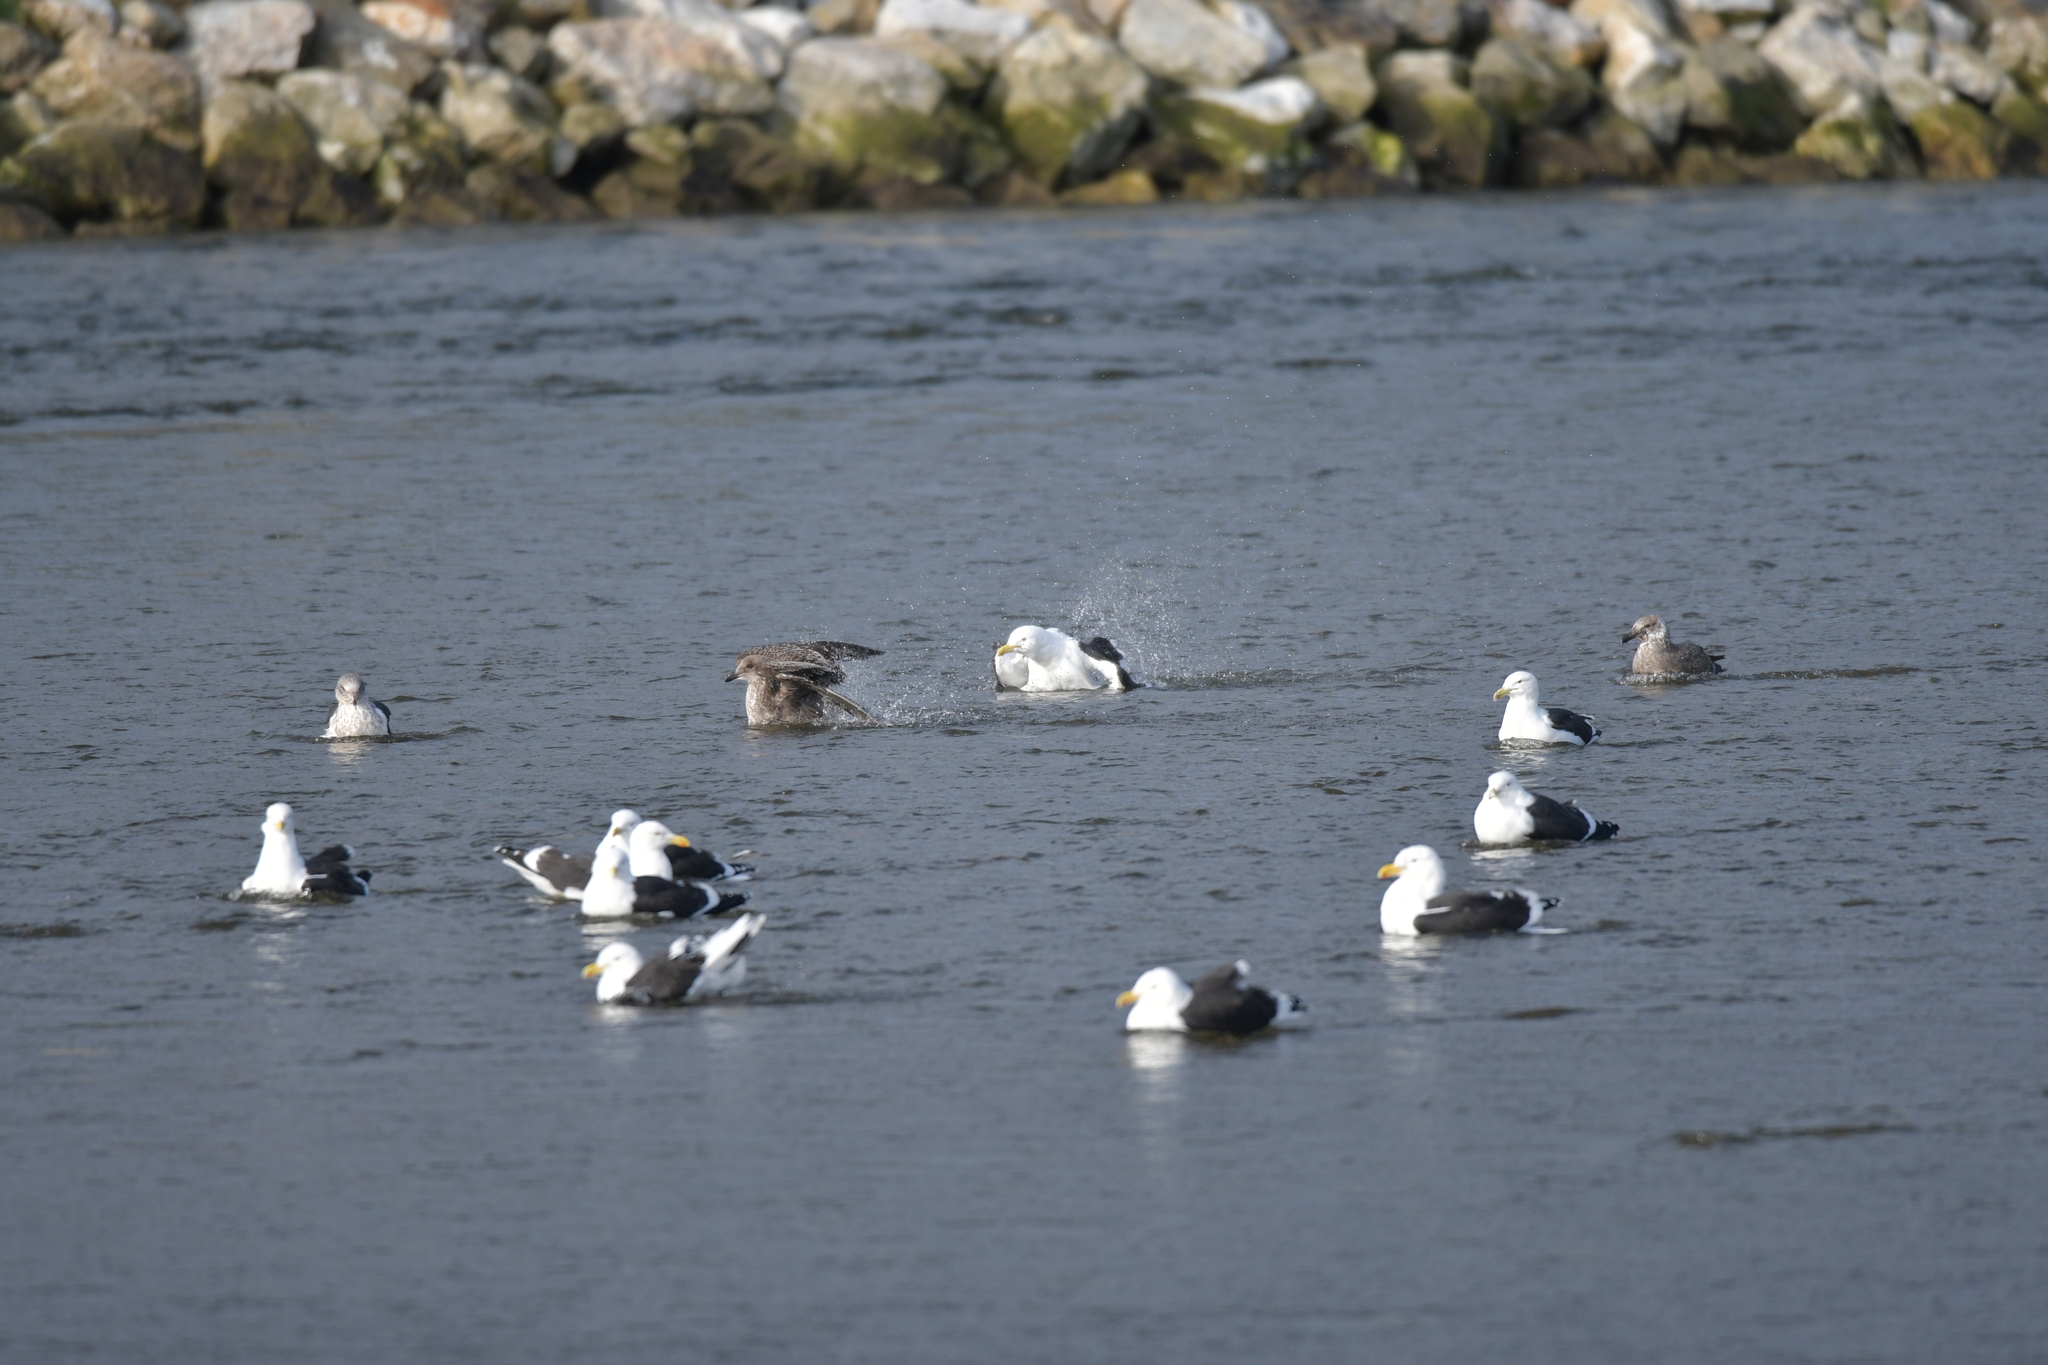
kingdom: Animalia
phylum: Chordata
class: Aves
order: Charadriiformes
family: Laridae
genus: Larus
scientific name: Larus dominicanus
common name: Kelp gull
